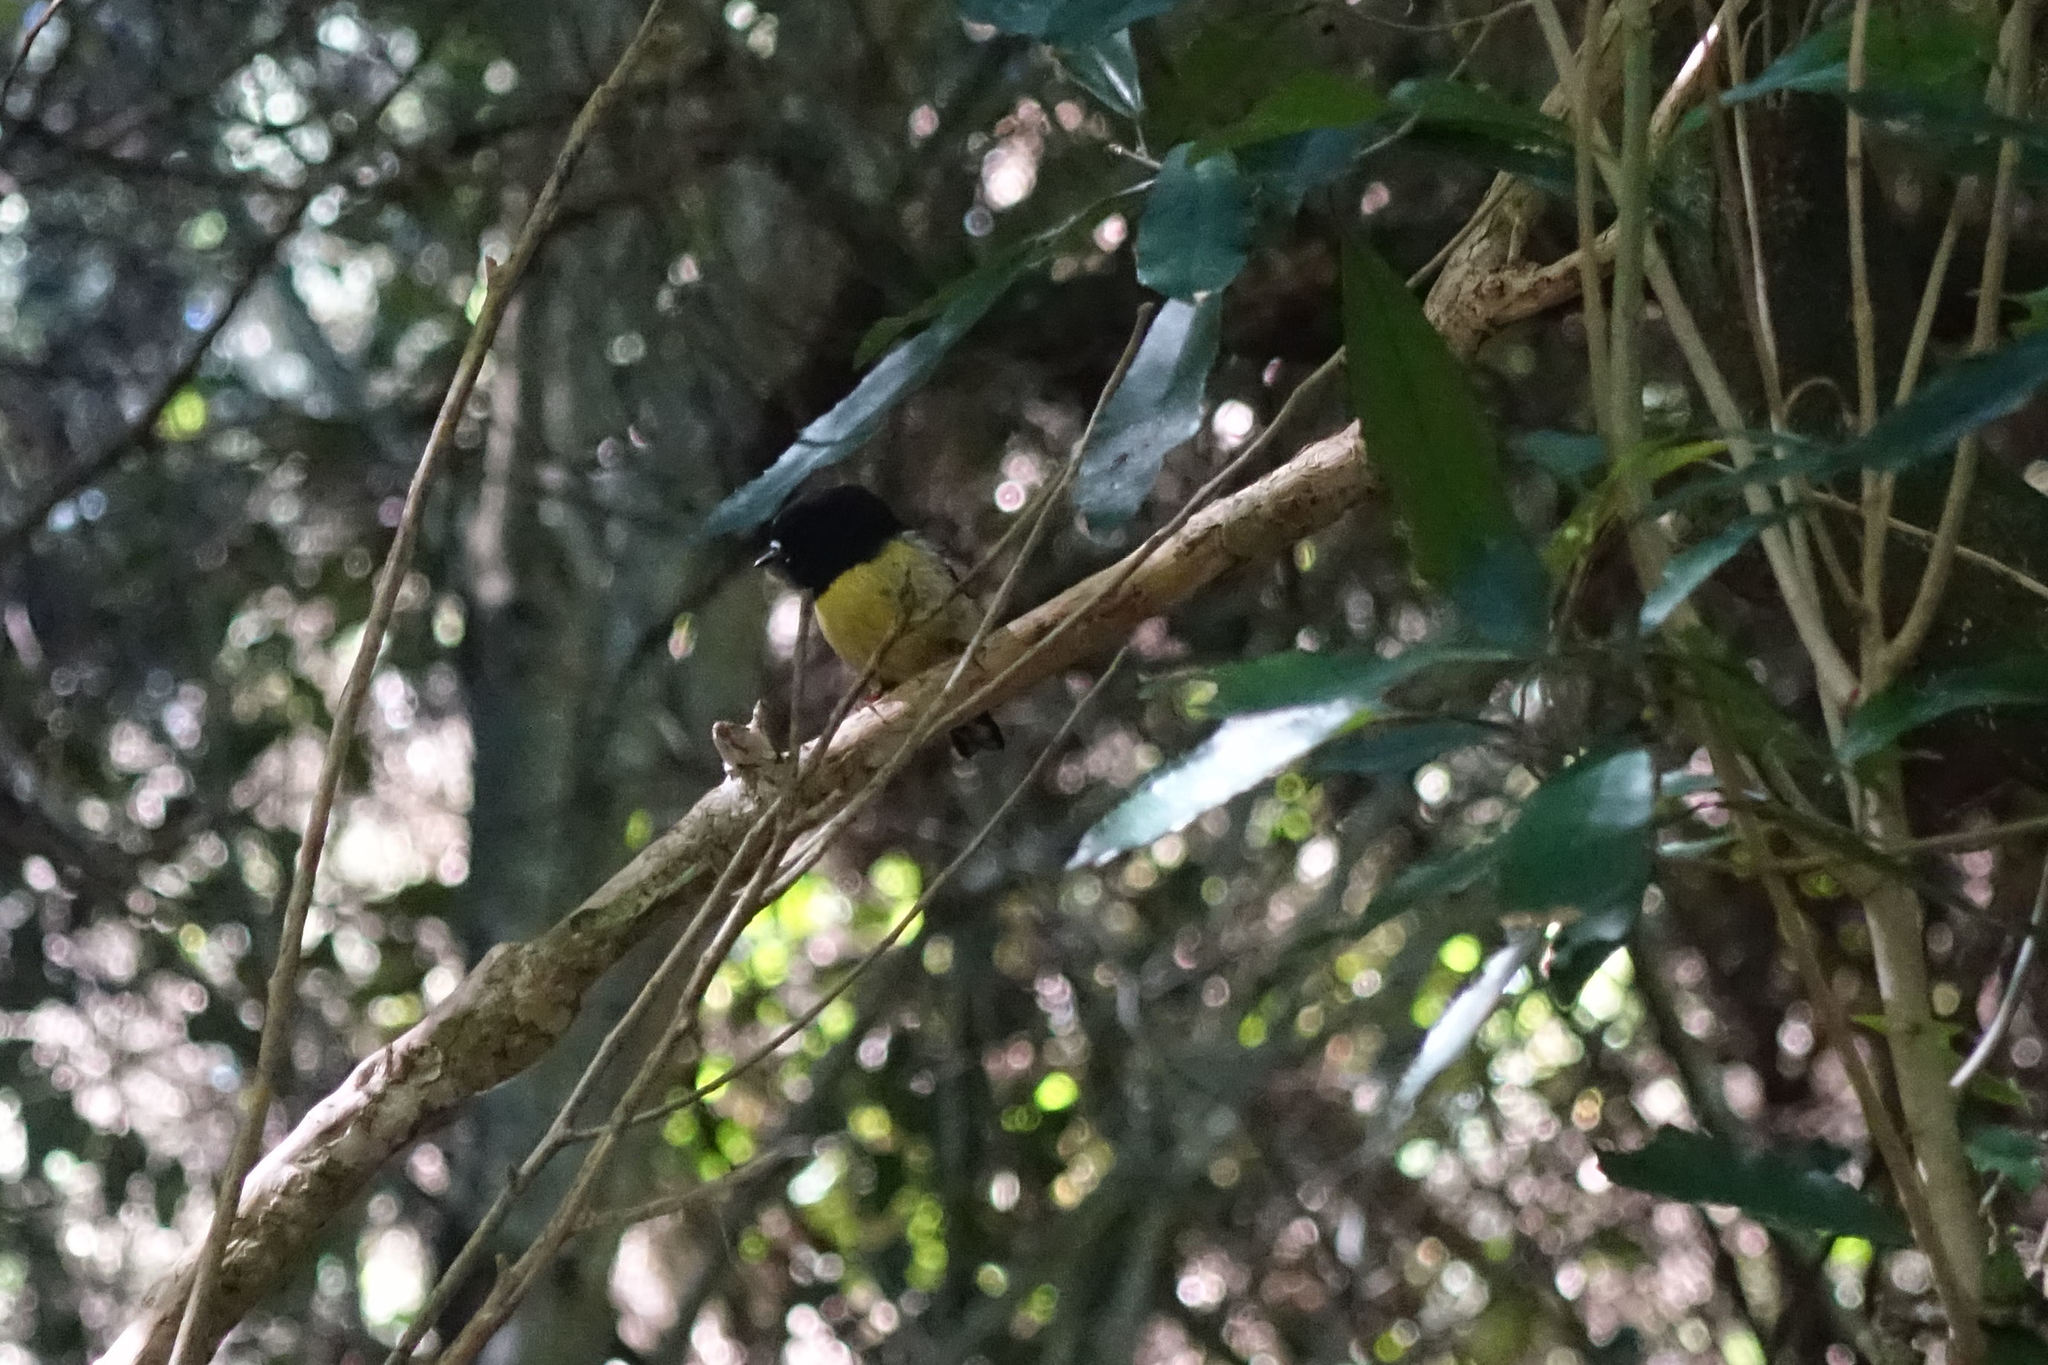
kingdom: Animalia
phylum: Chordata
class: Aves
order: Passeriformes
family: Petroicidae
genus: Petroica
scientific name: Petroica macrocephala
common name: Tomtit
